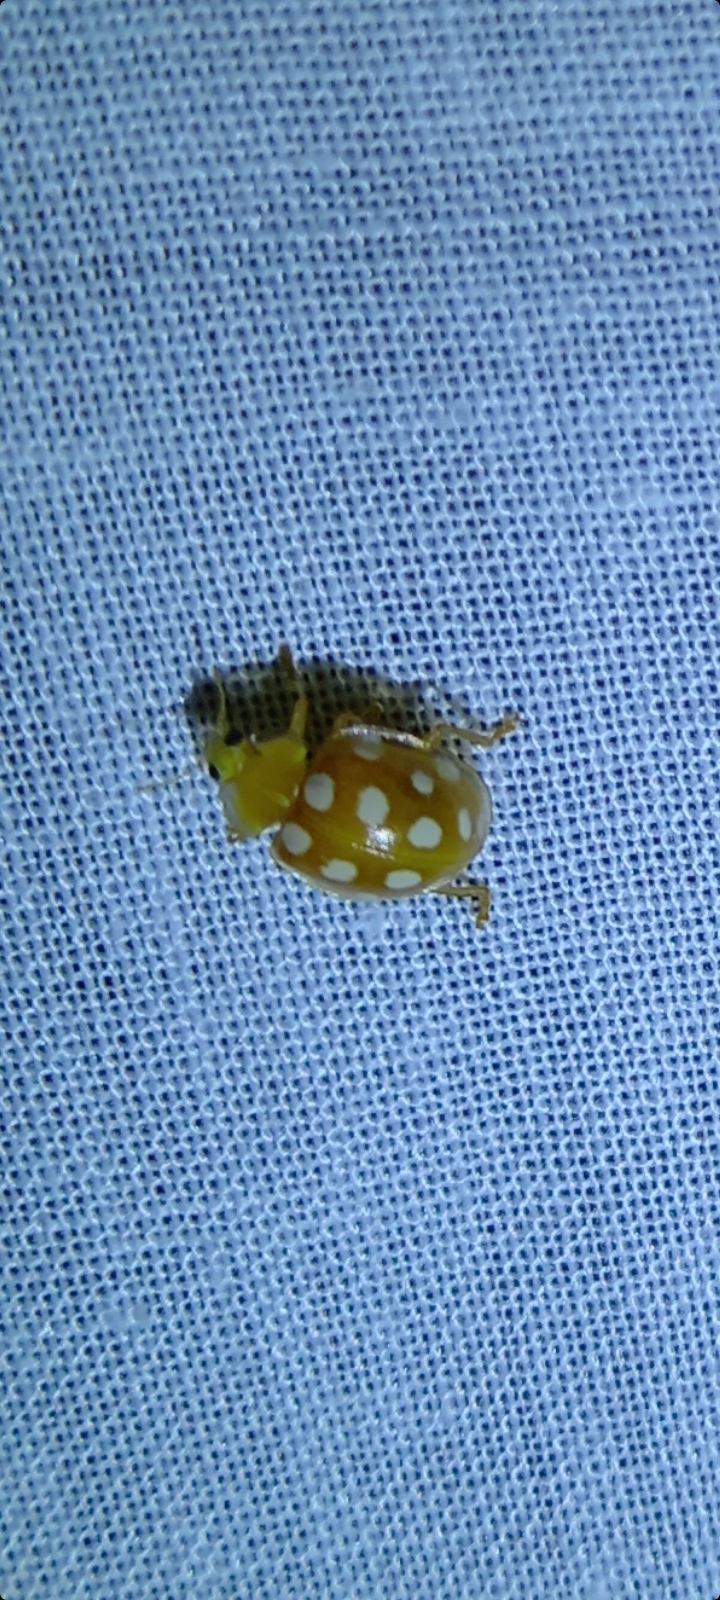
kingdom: Animalia
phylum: Arthropoda
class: Insecta
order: Coleoptera
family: Coccinellidae
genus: Halyzia
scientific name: Halyzia sedecimguttata
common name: Orange ladybird
